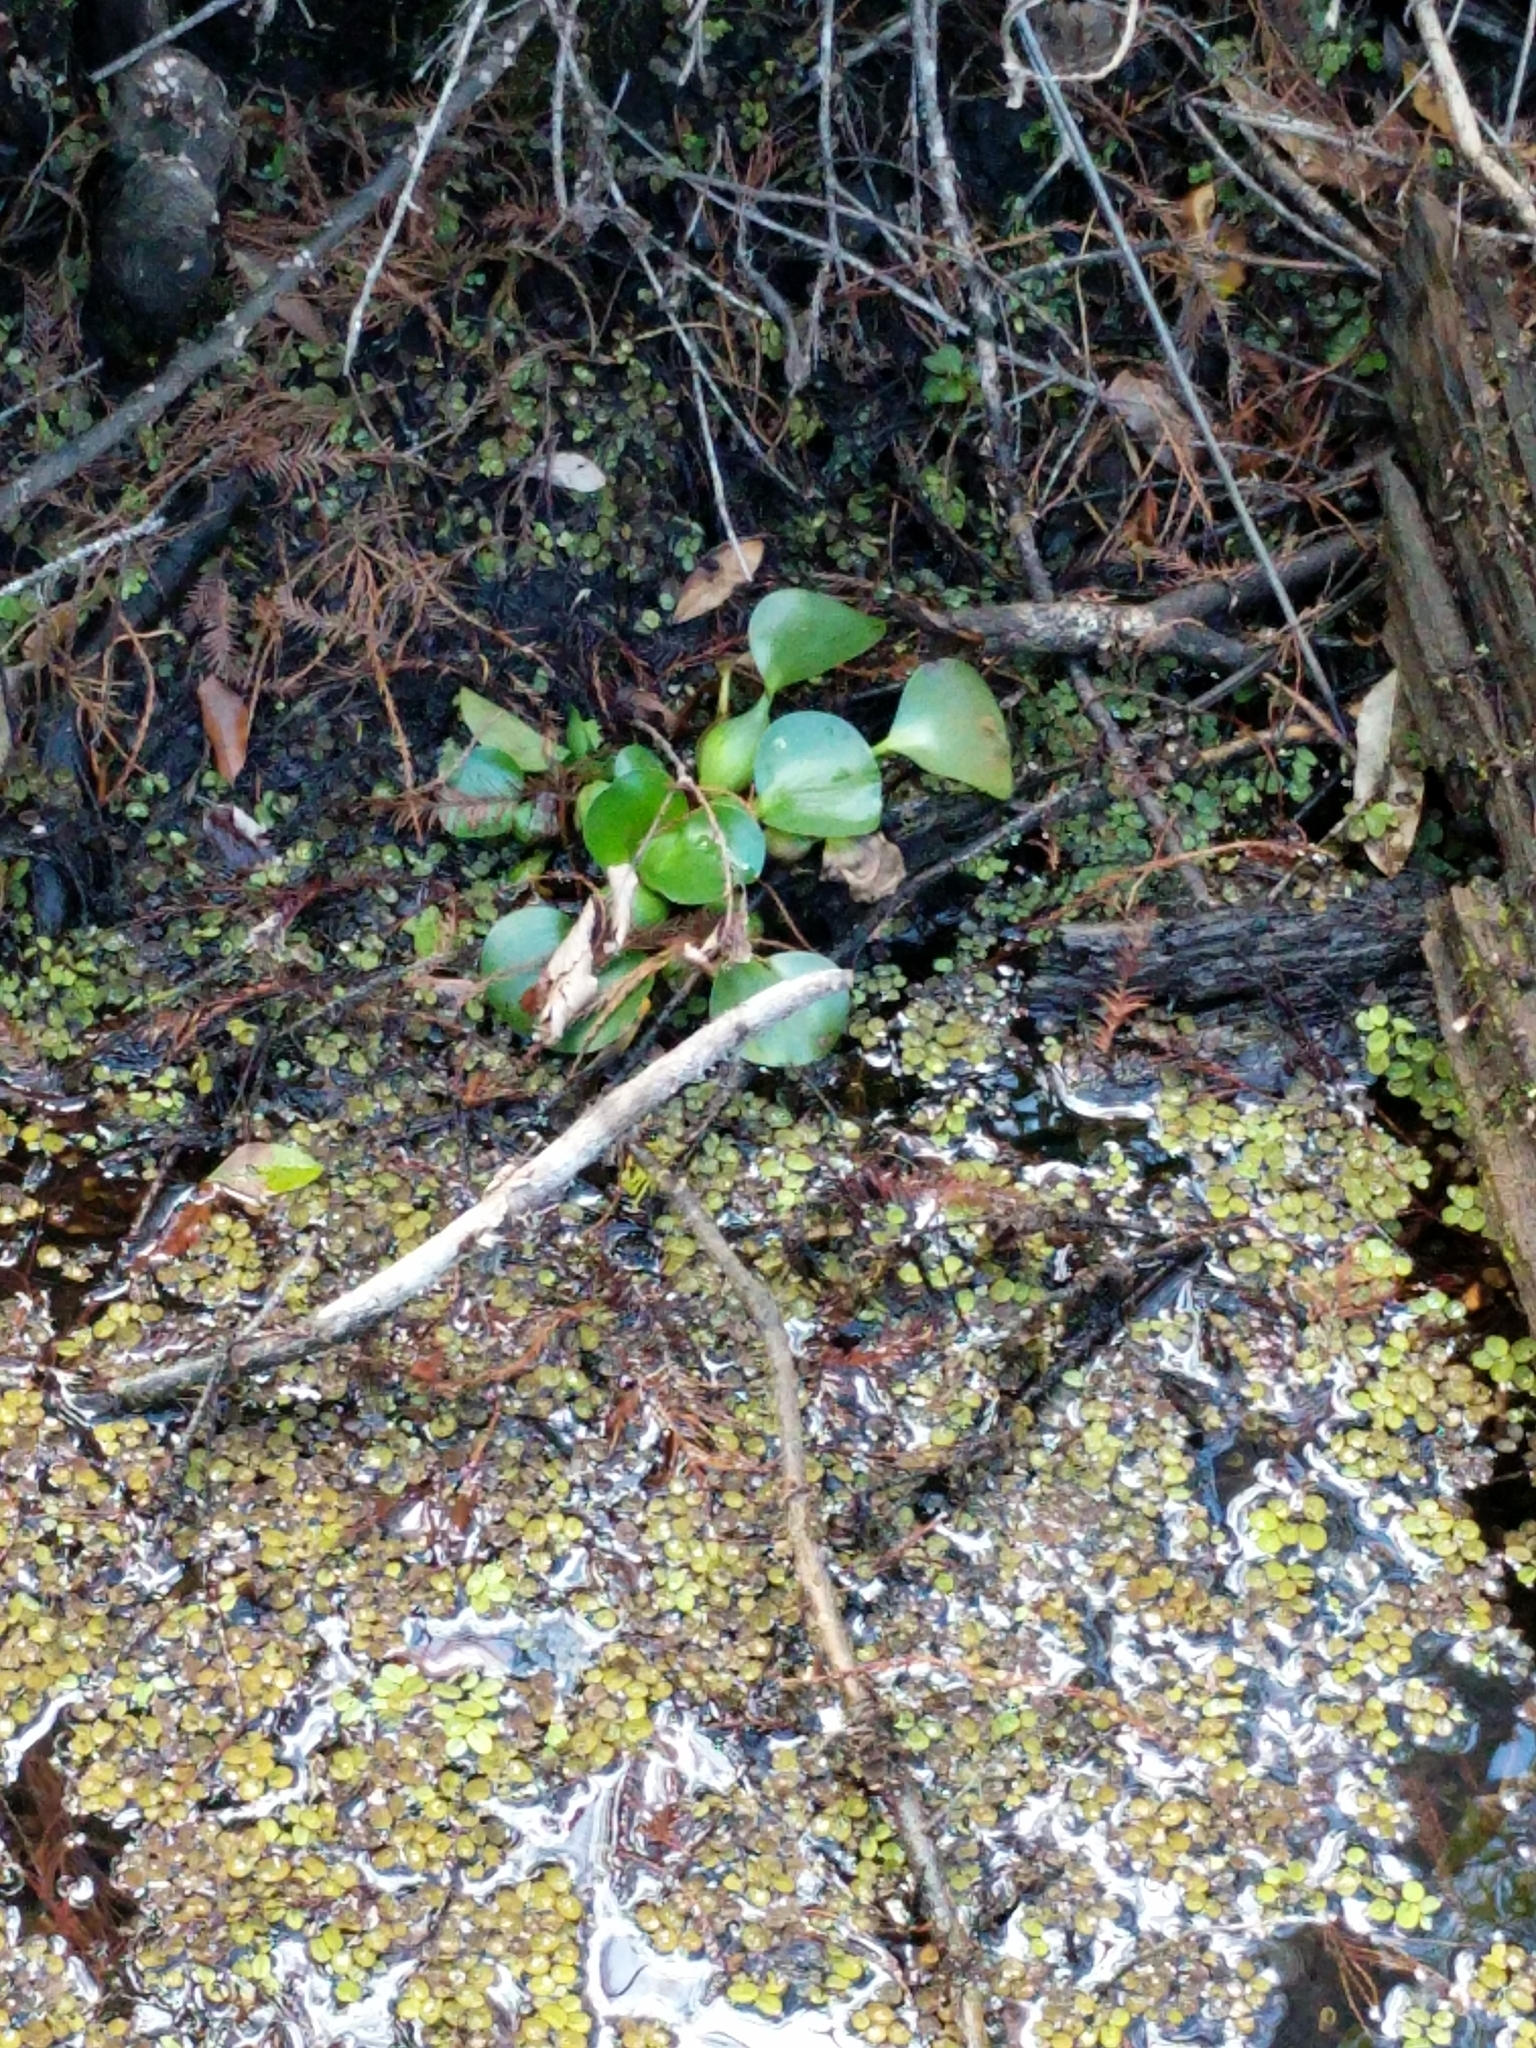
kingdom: Plantae
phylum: Tracheophyta
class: Liliopsida
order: Commelinales
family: Pontederiaceae
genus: Pontederia
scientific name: Pontederia crassipes
